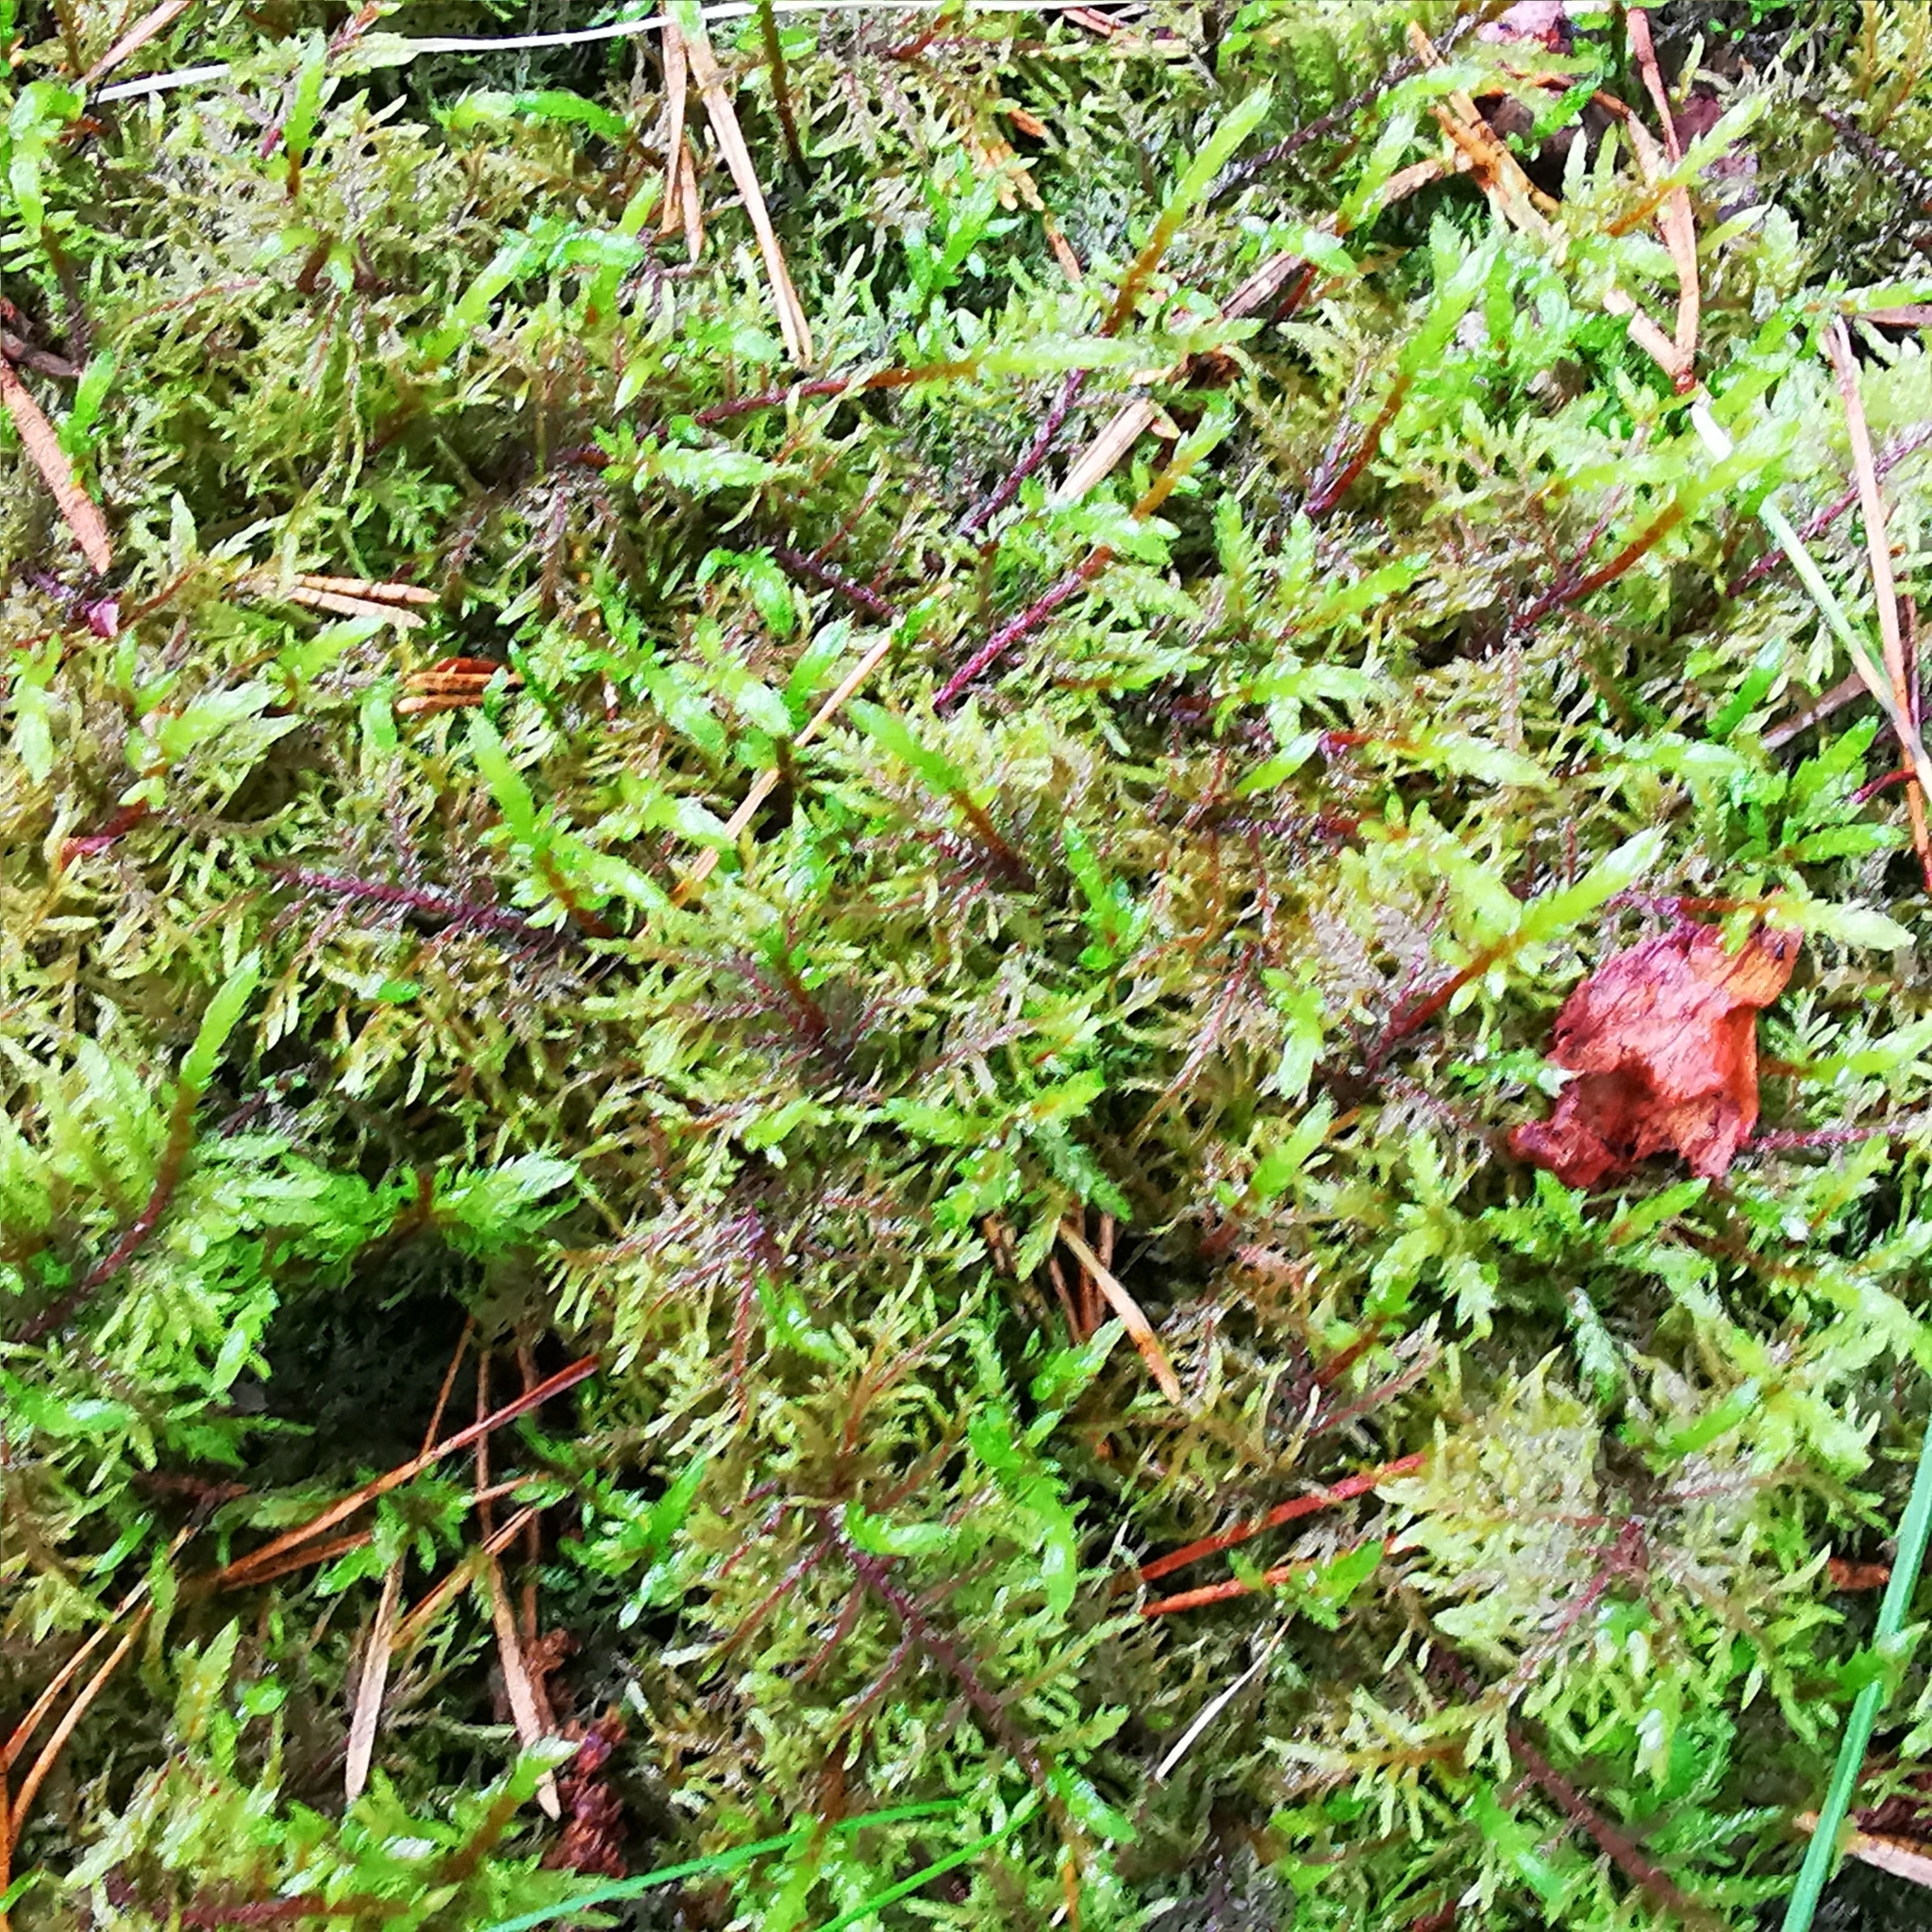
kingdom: Plantae
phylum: Bryophyta
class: Bryopsida
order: Hypnales
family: Hylocomiaceae
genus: Hylocomium
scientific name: Hylocomium splendens
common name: Stairstep moss
